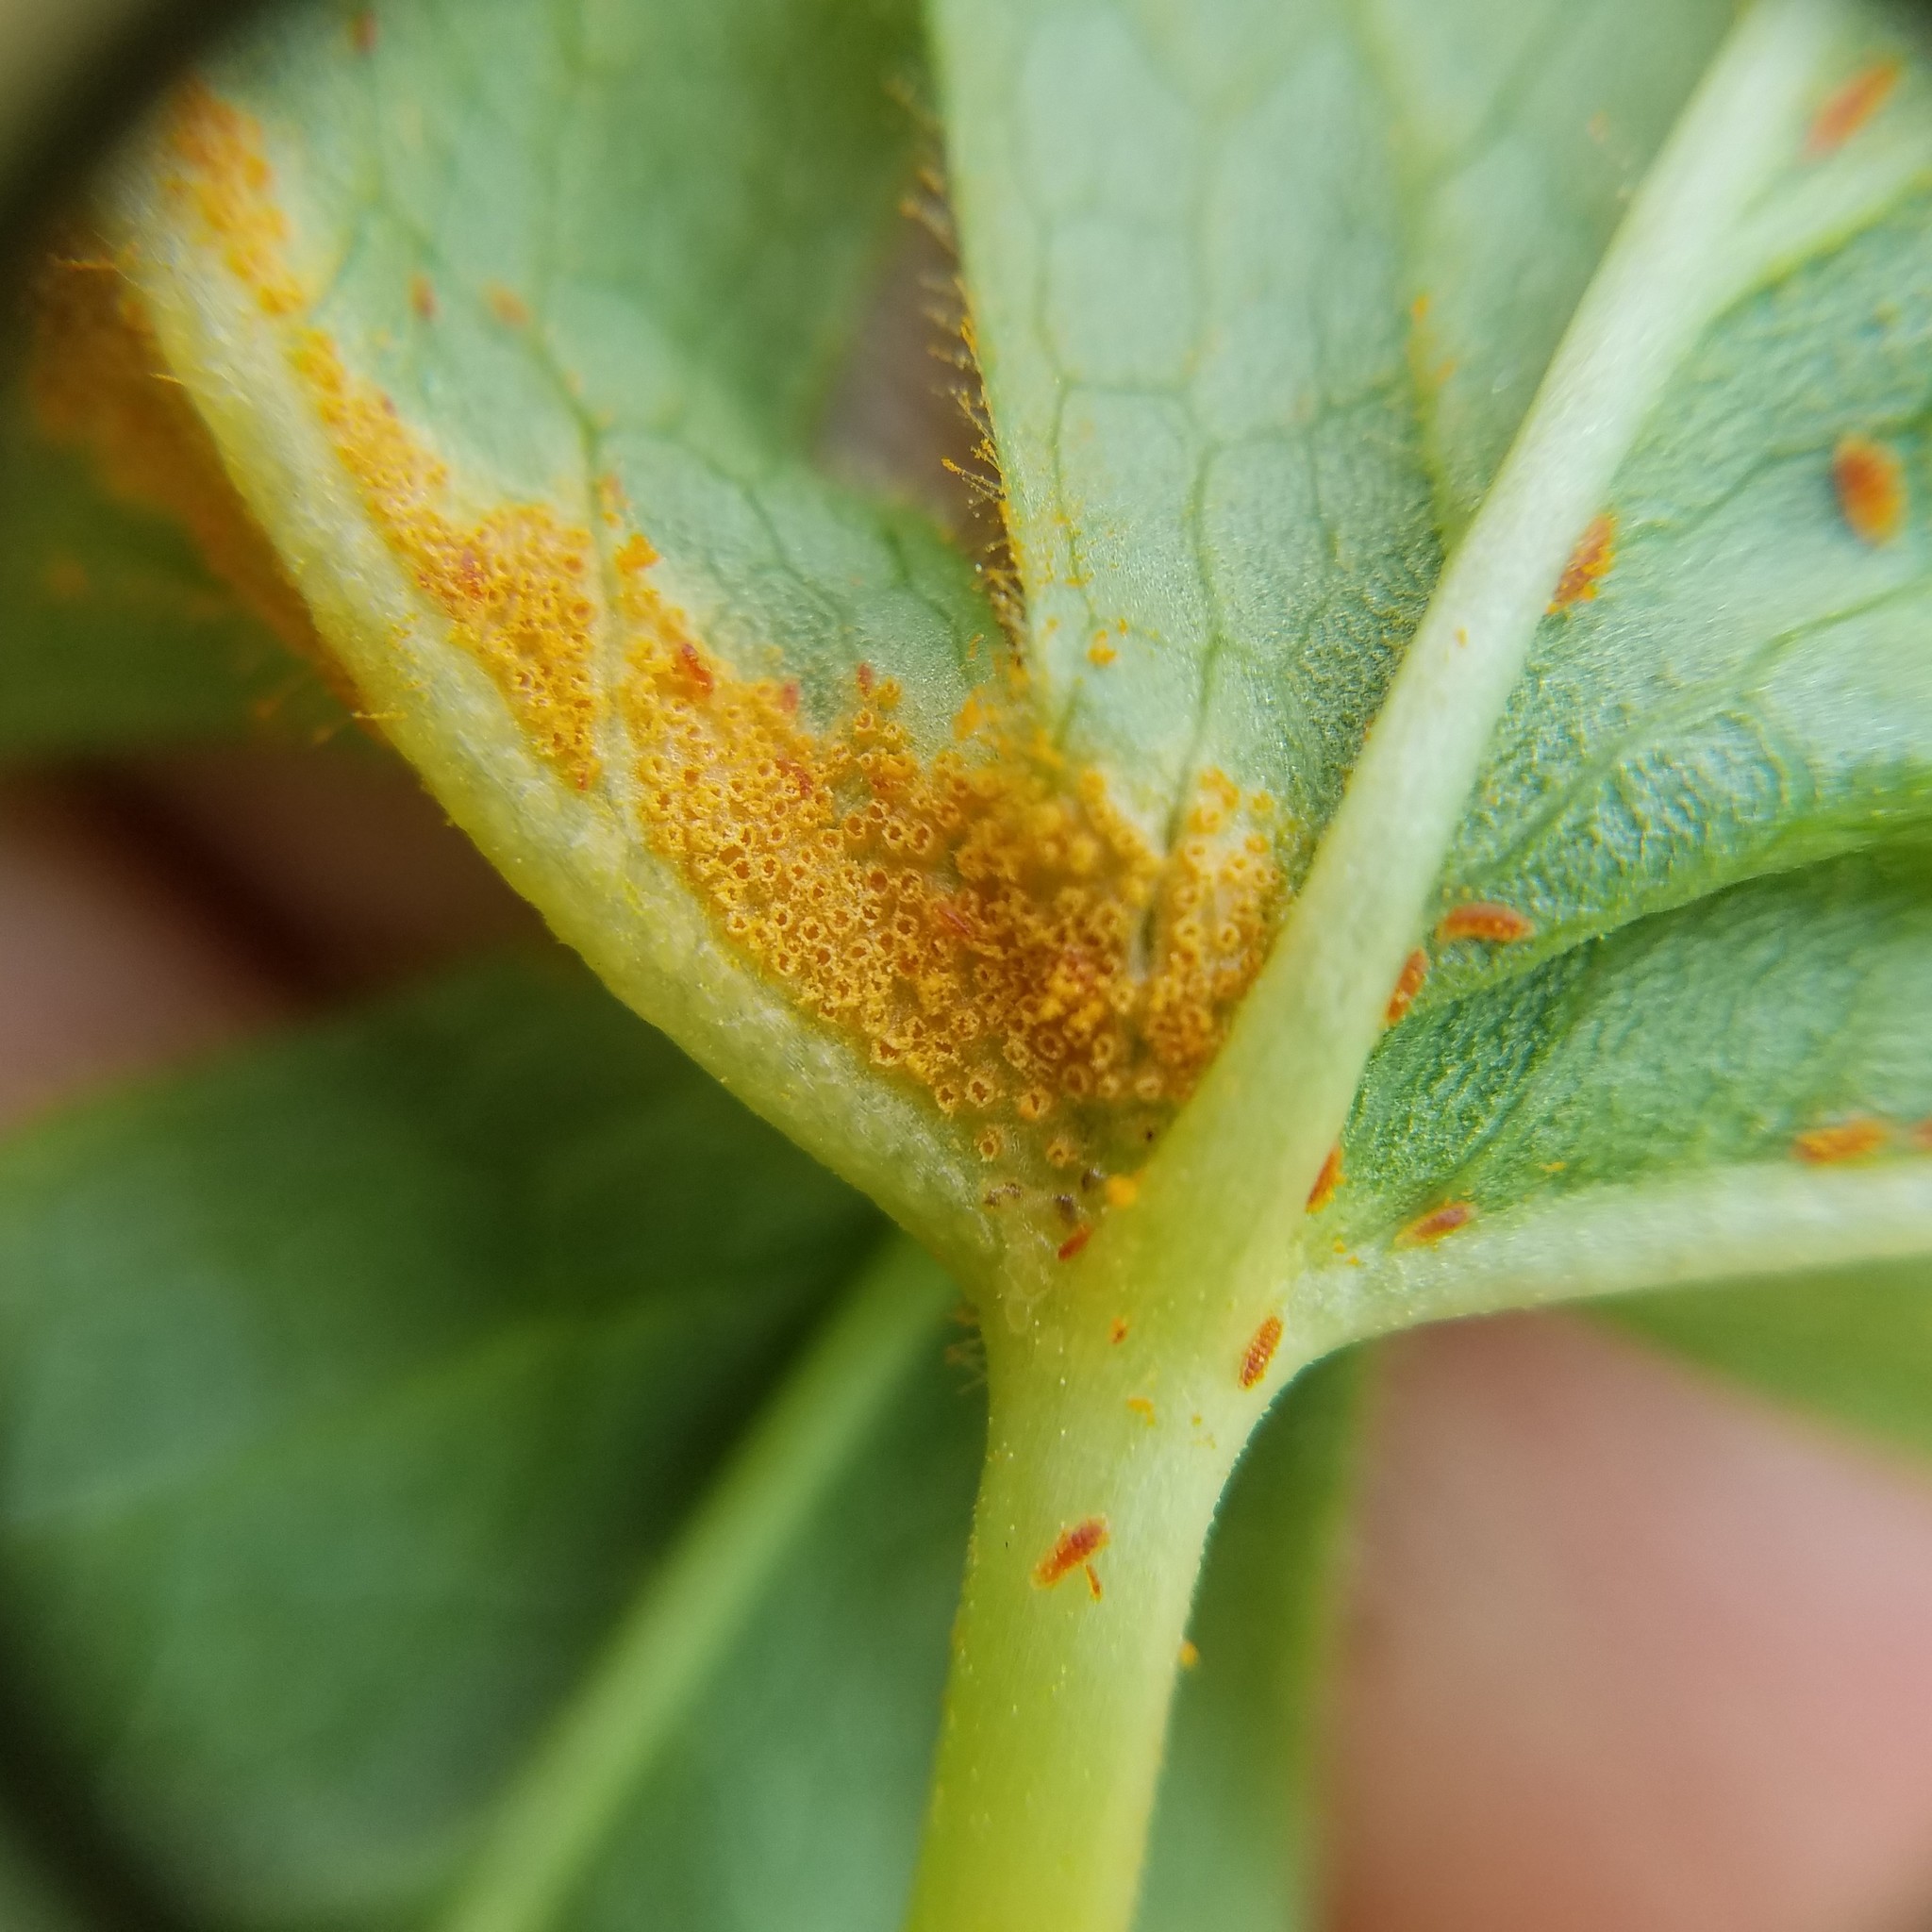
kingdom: Fungi
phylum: Basidiomycota
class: Pucciniomycetes
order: Pucciniales
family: Pucciniaceae
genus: Puccinia
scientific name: Puccinia podophylli
